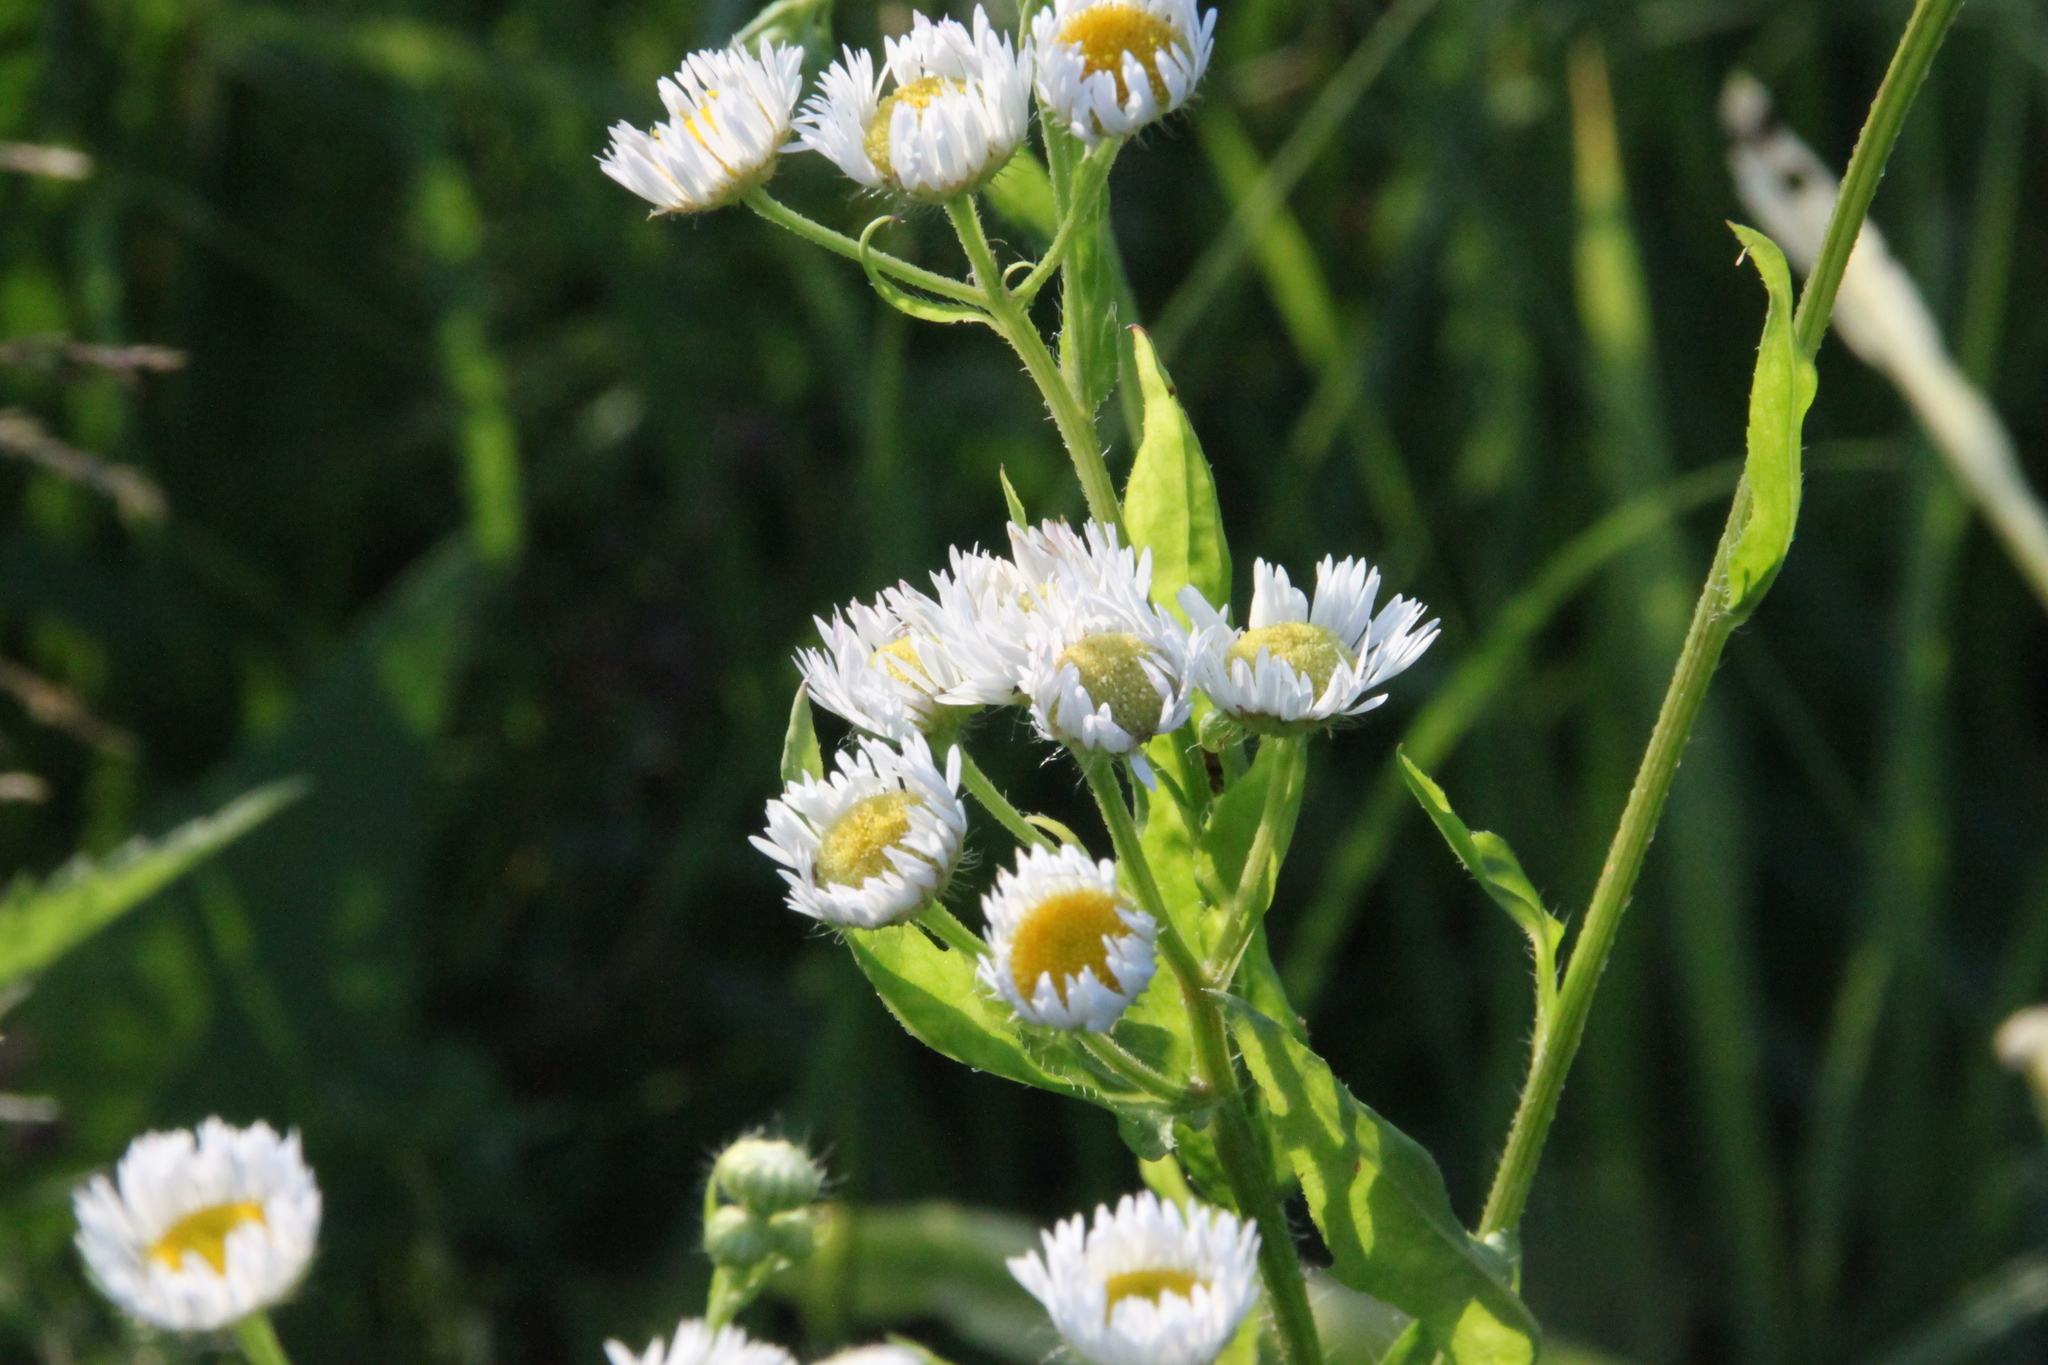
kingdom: Plantae
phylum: Tracheophyta
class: Magnoliopsida
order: Asterales
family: Asteraceae
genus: Erigeron
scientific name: Erigeron annuus
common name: Tall fleabane
